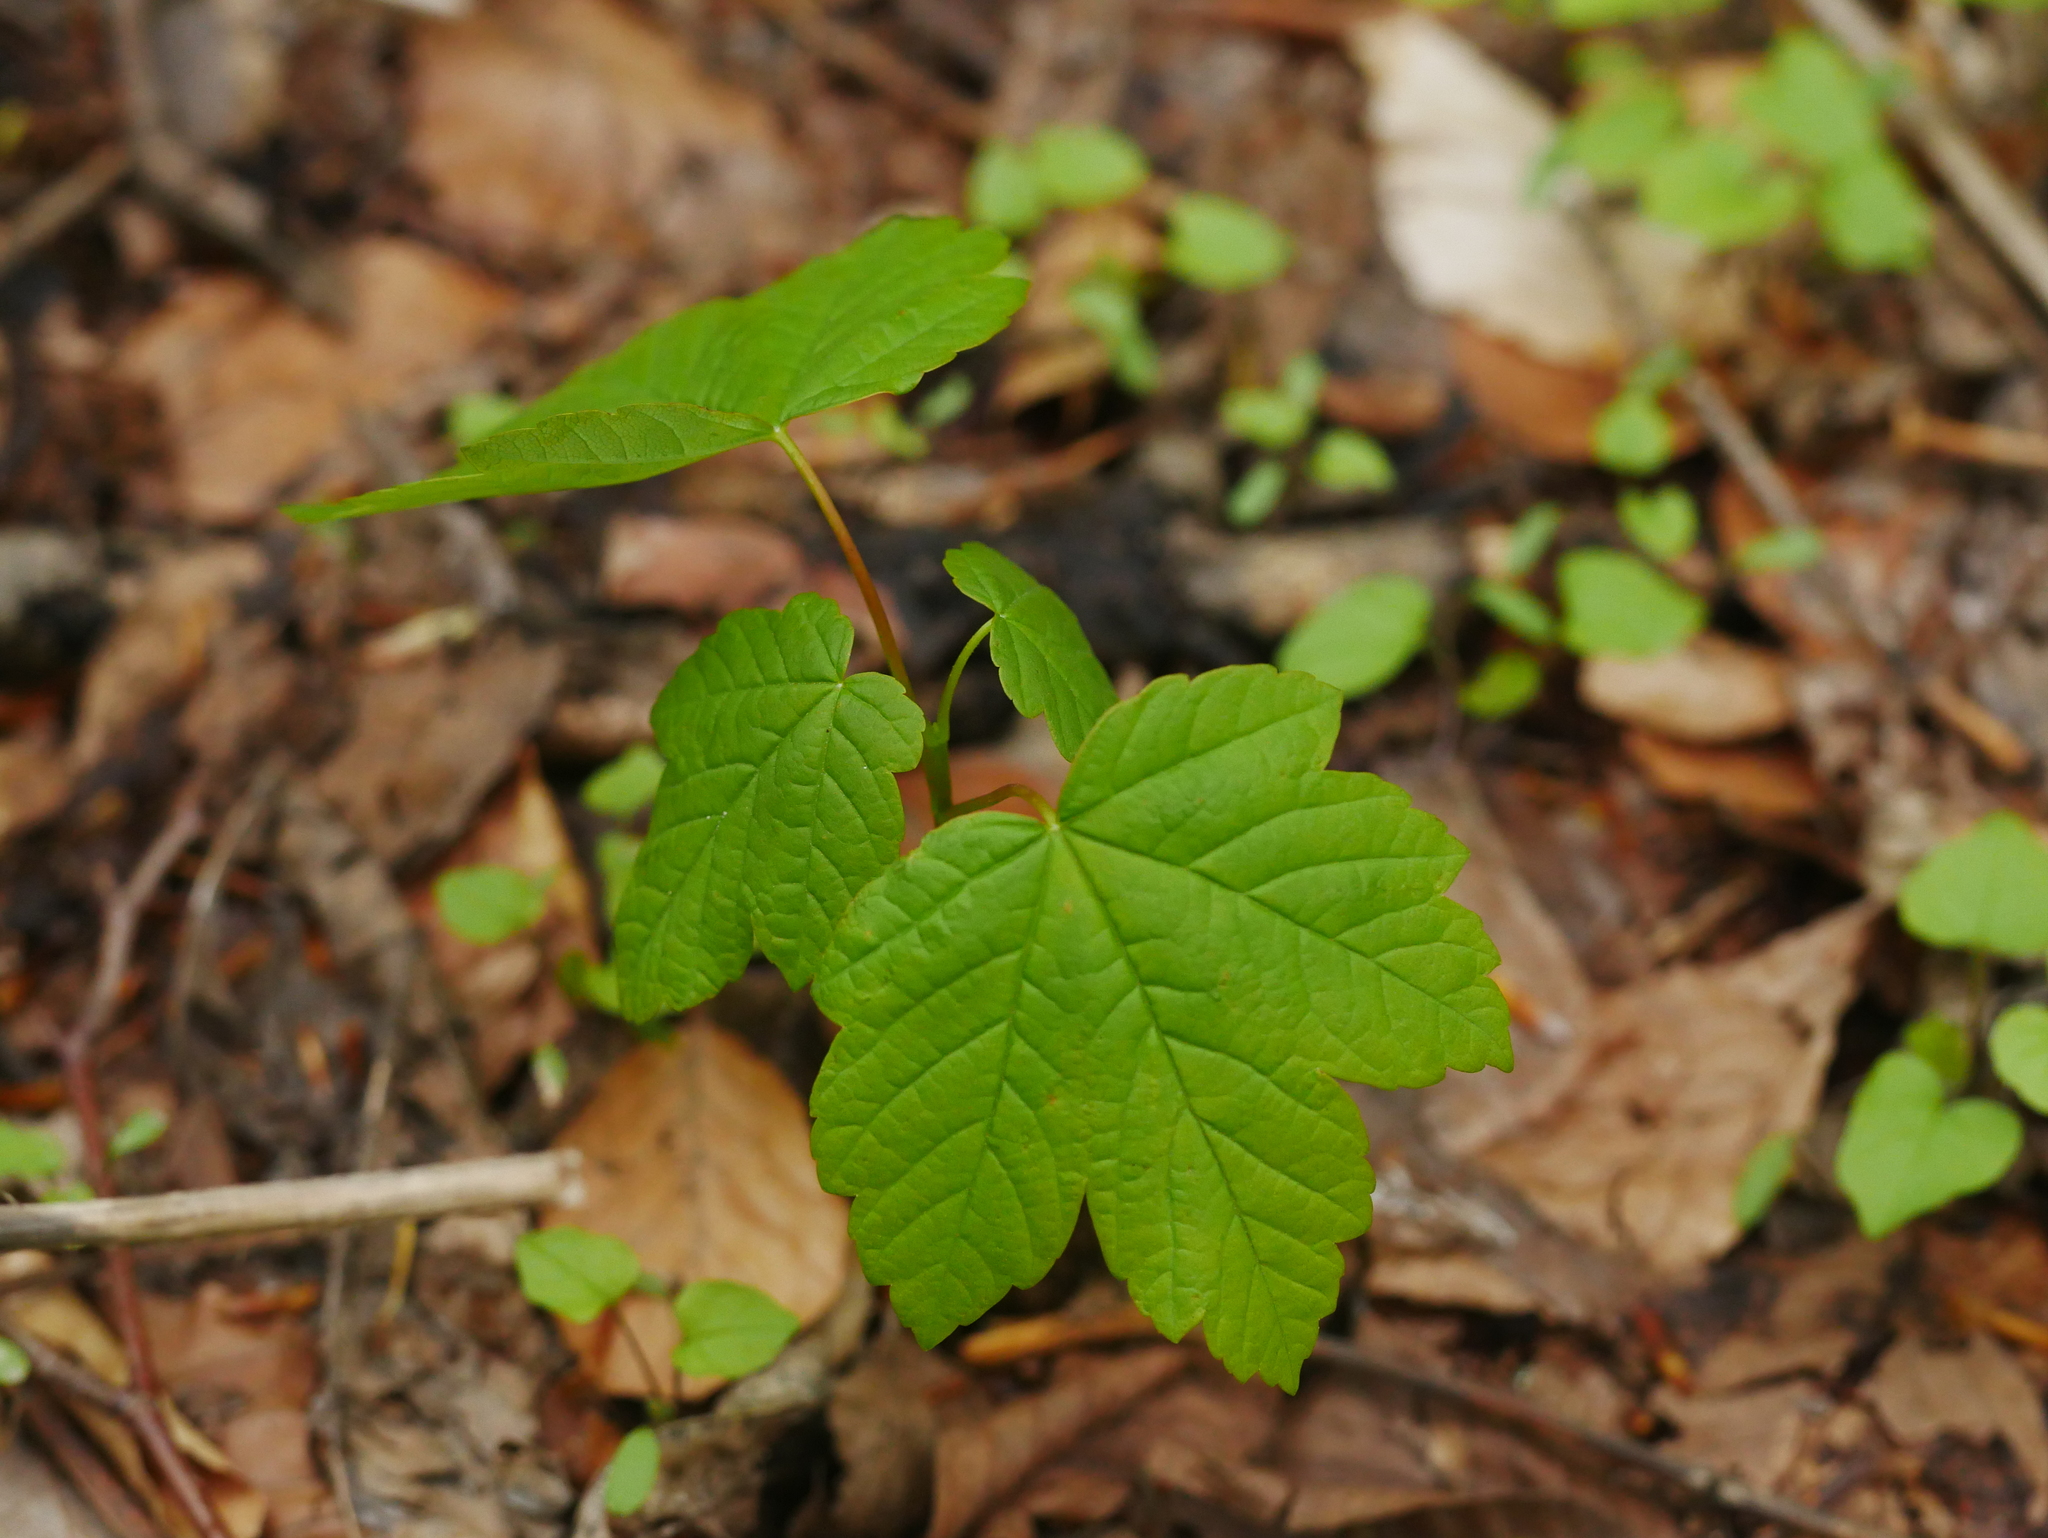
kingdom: Plantae
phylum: Tracheophyta
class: Magnoliopsida
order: Sapindales
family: Sapindaceae
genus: Acer
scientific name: Acer pseudoplatanus
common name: Sycamore
